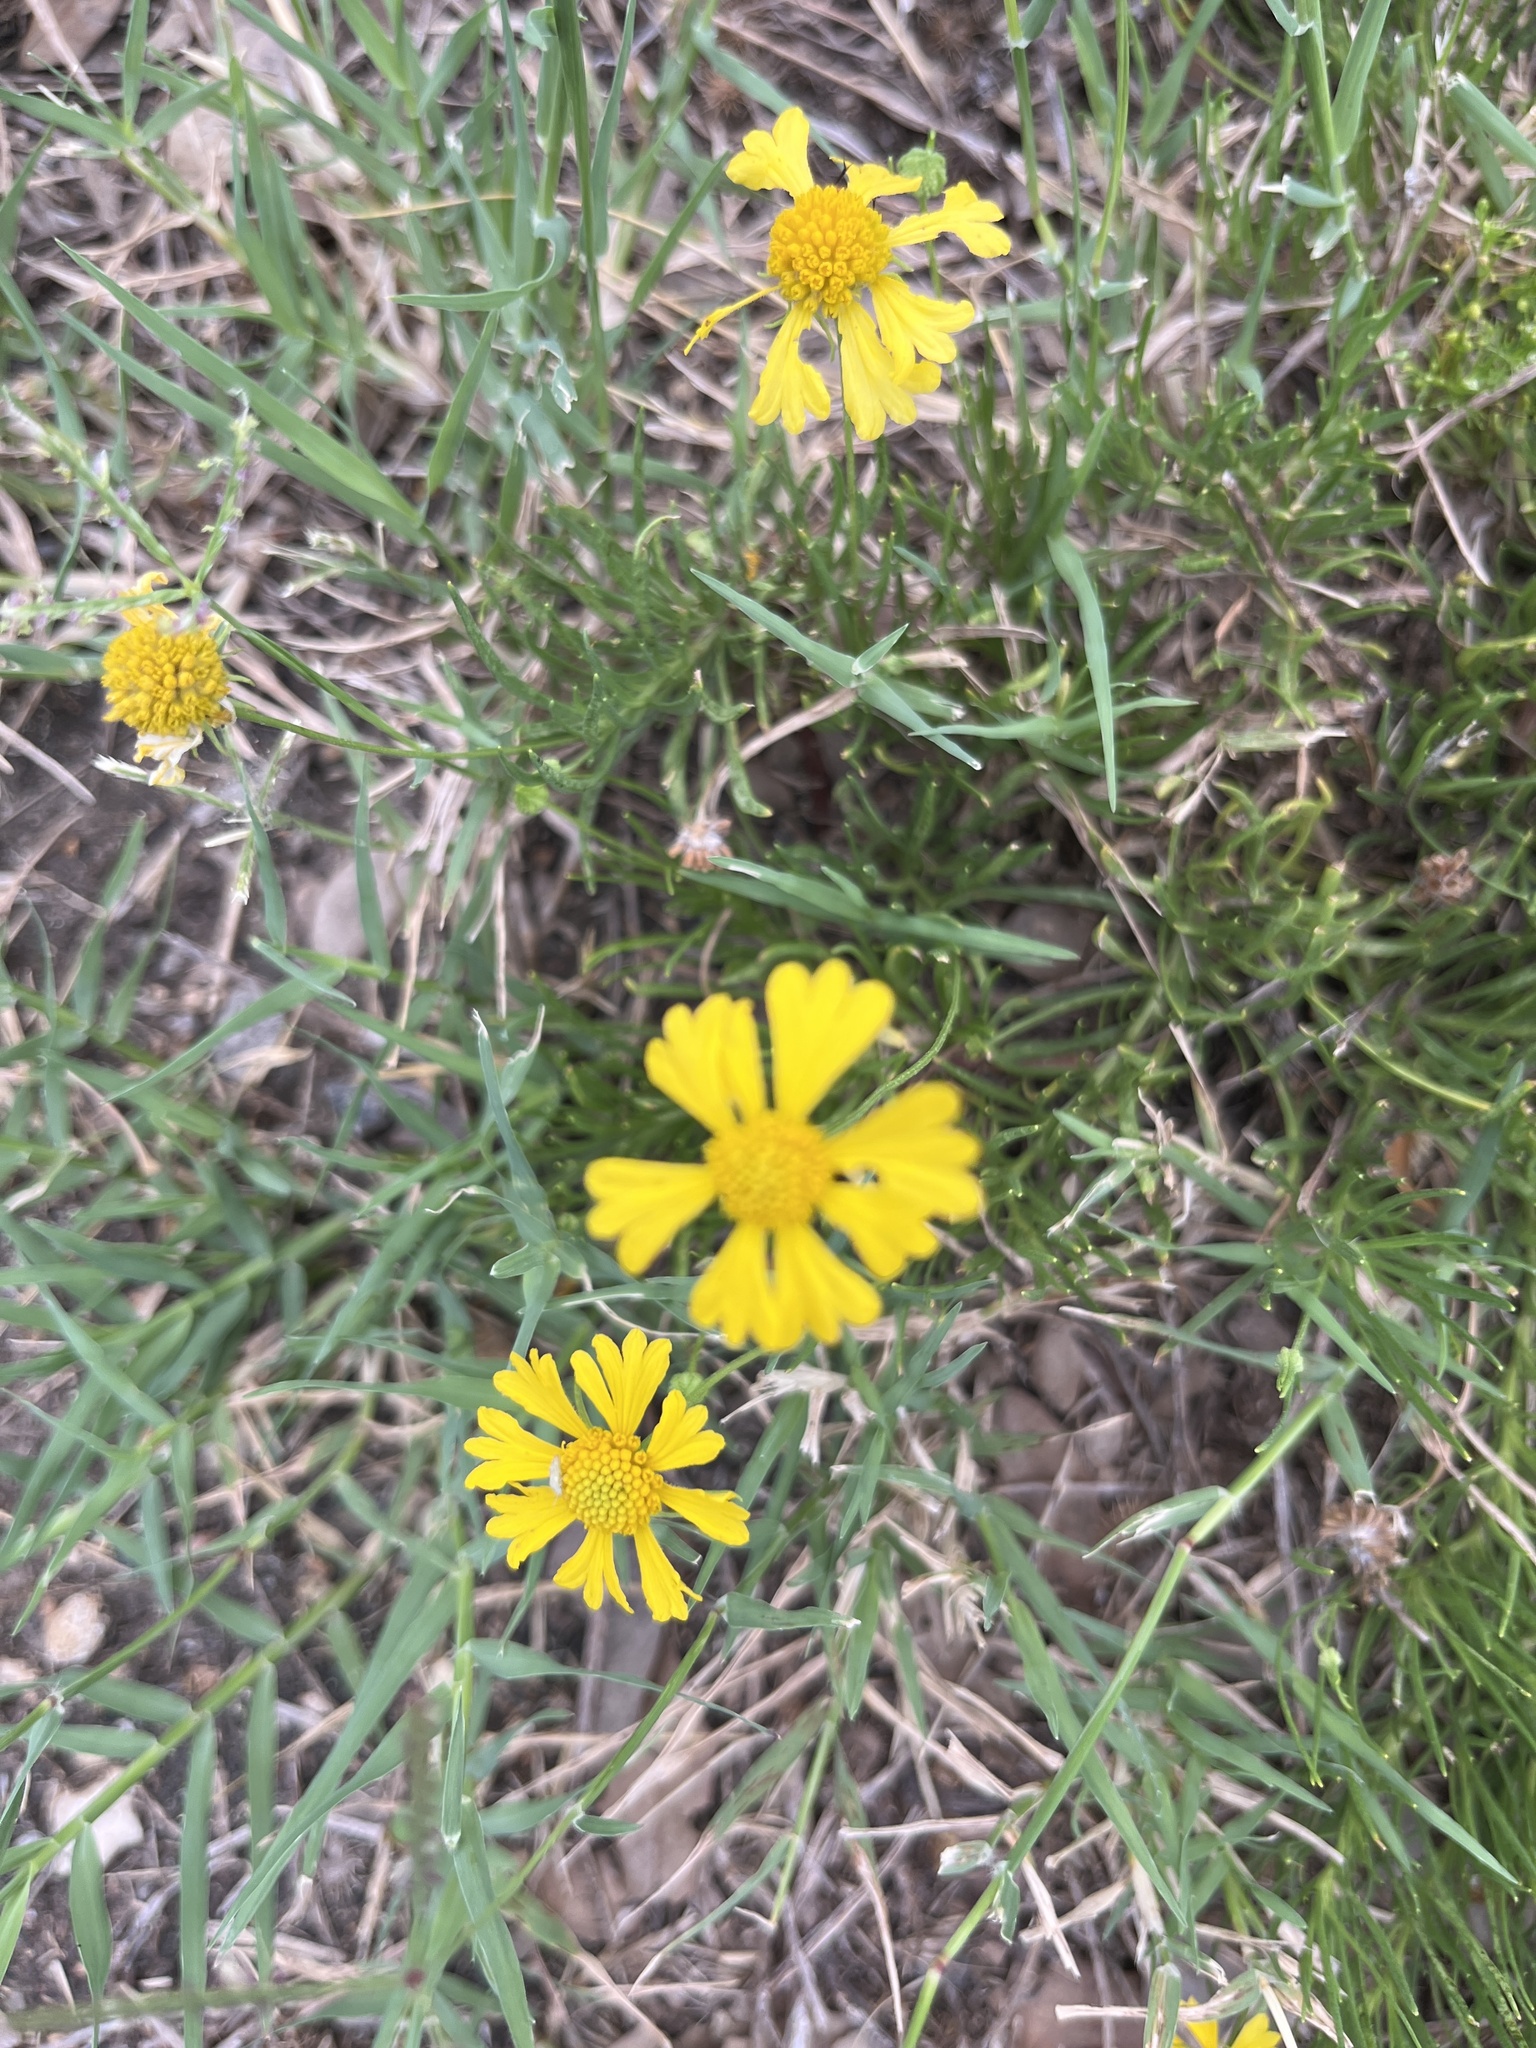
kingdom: Plantae
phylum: Tracheophyta
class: Magnoliopsida
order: Asterales
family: Asteraceae
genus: Helenium
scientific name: Helenium amarum
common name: Bitter sneezeweed
